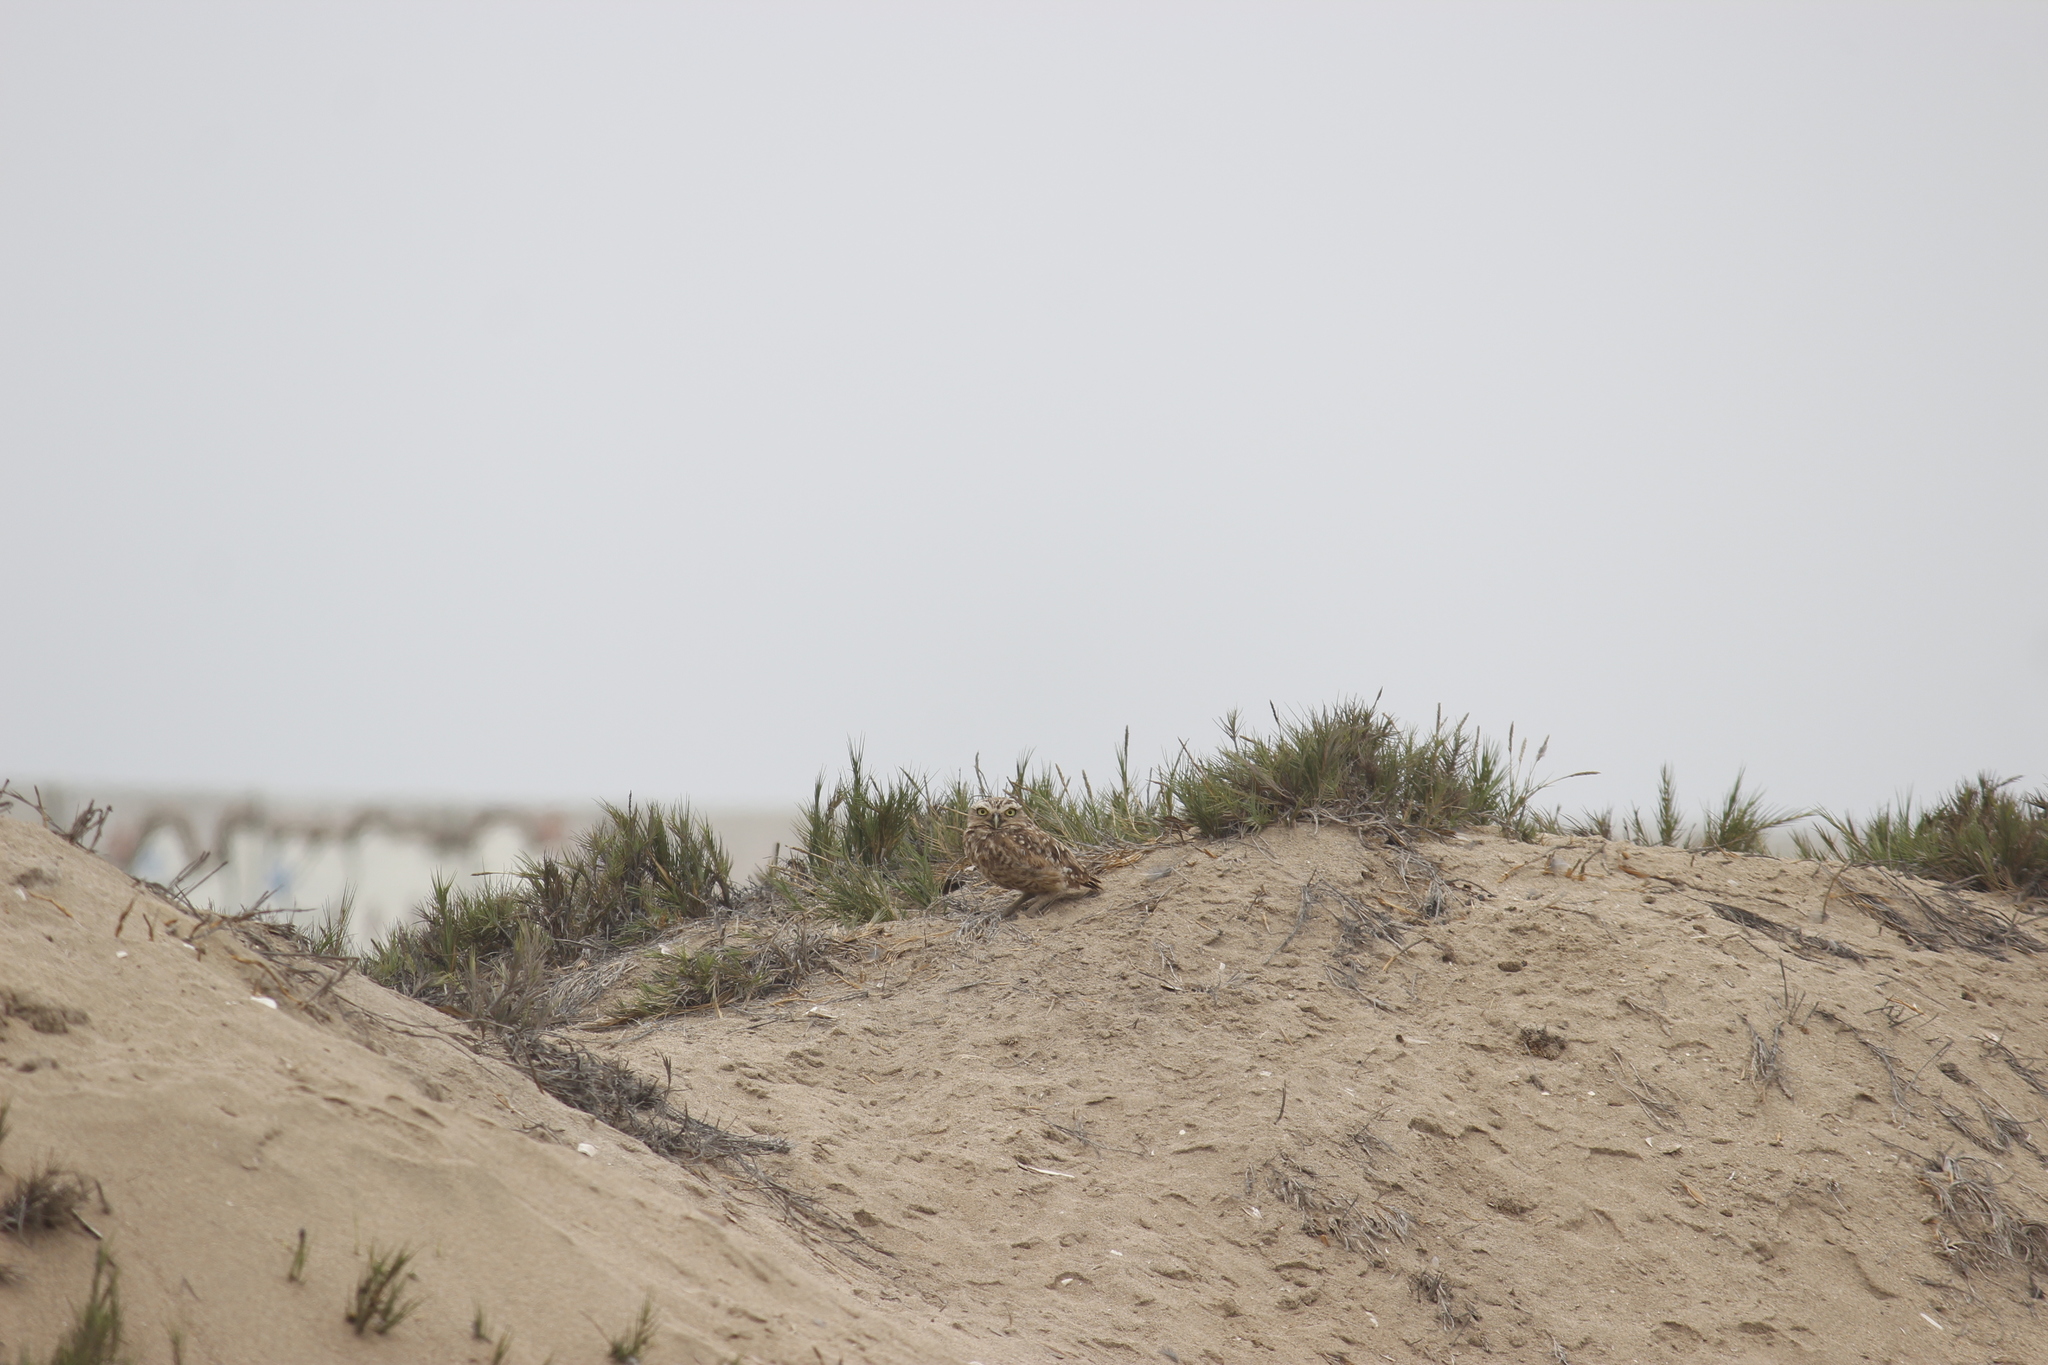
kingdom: Animalia
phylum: Chordata
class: Aves
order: Strigiformes
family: Strigidae
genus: Athene
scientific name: Athene cunicularia
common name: Burrowing owl
